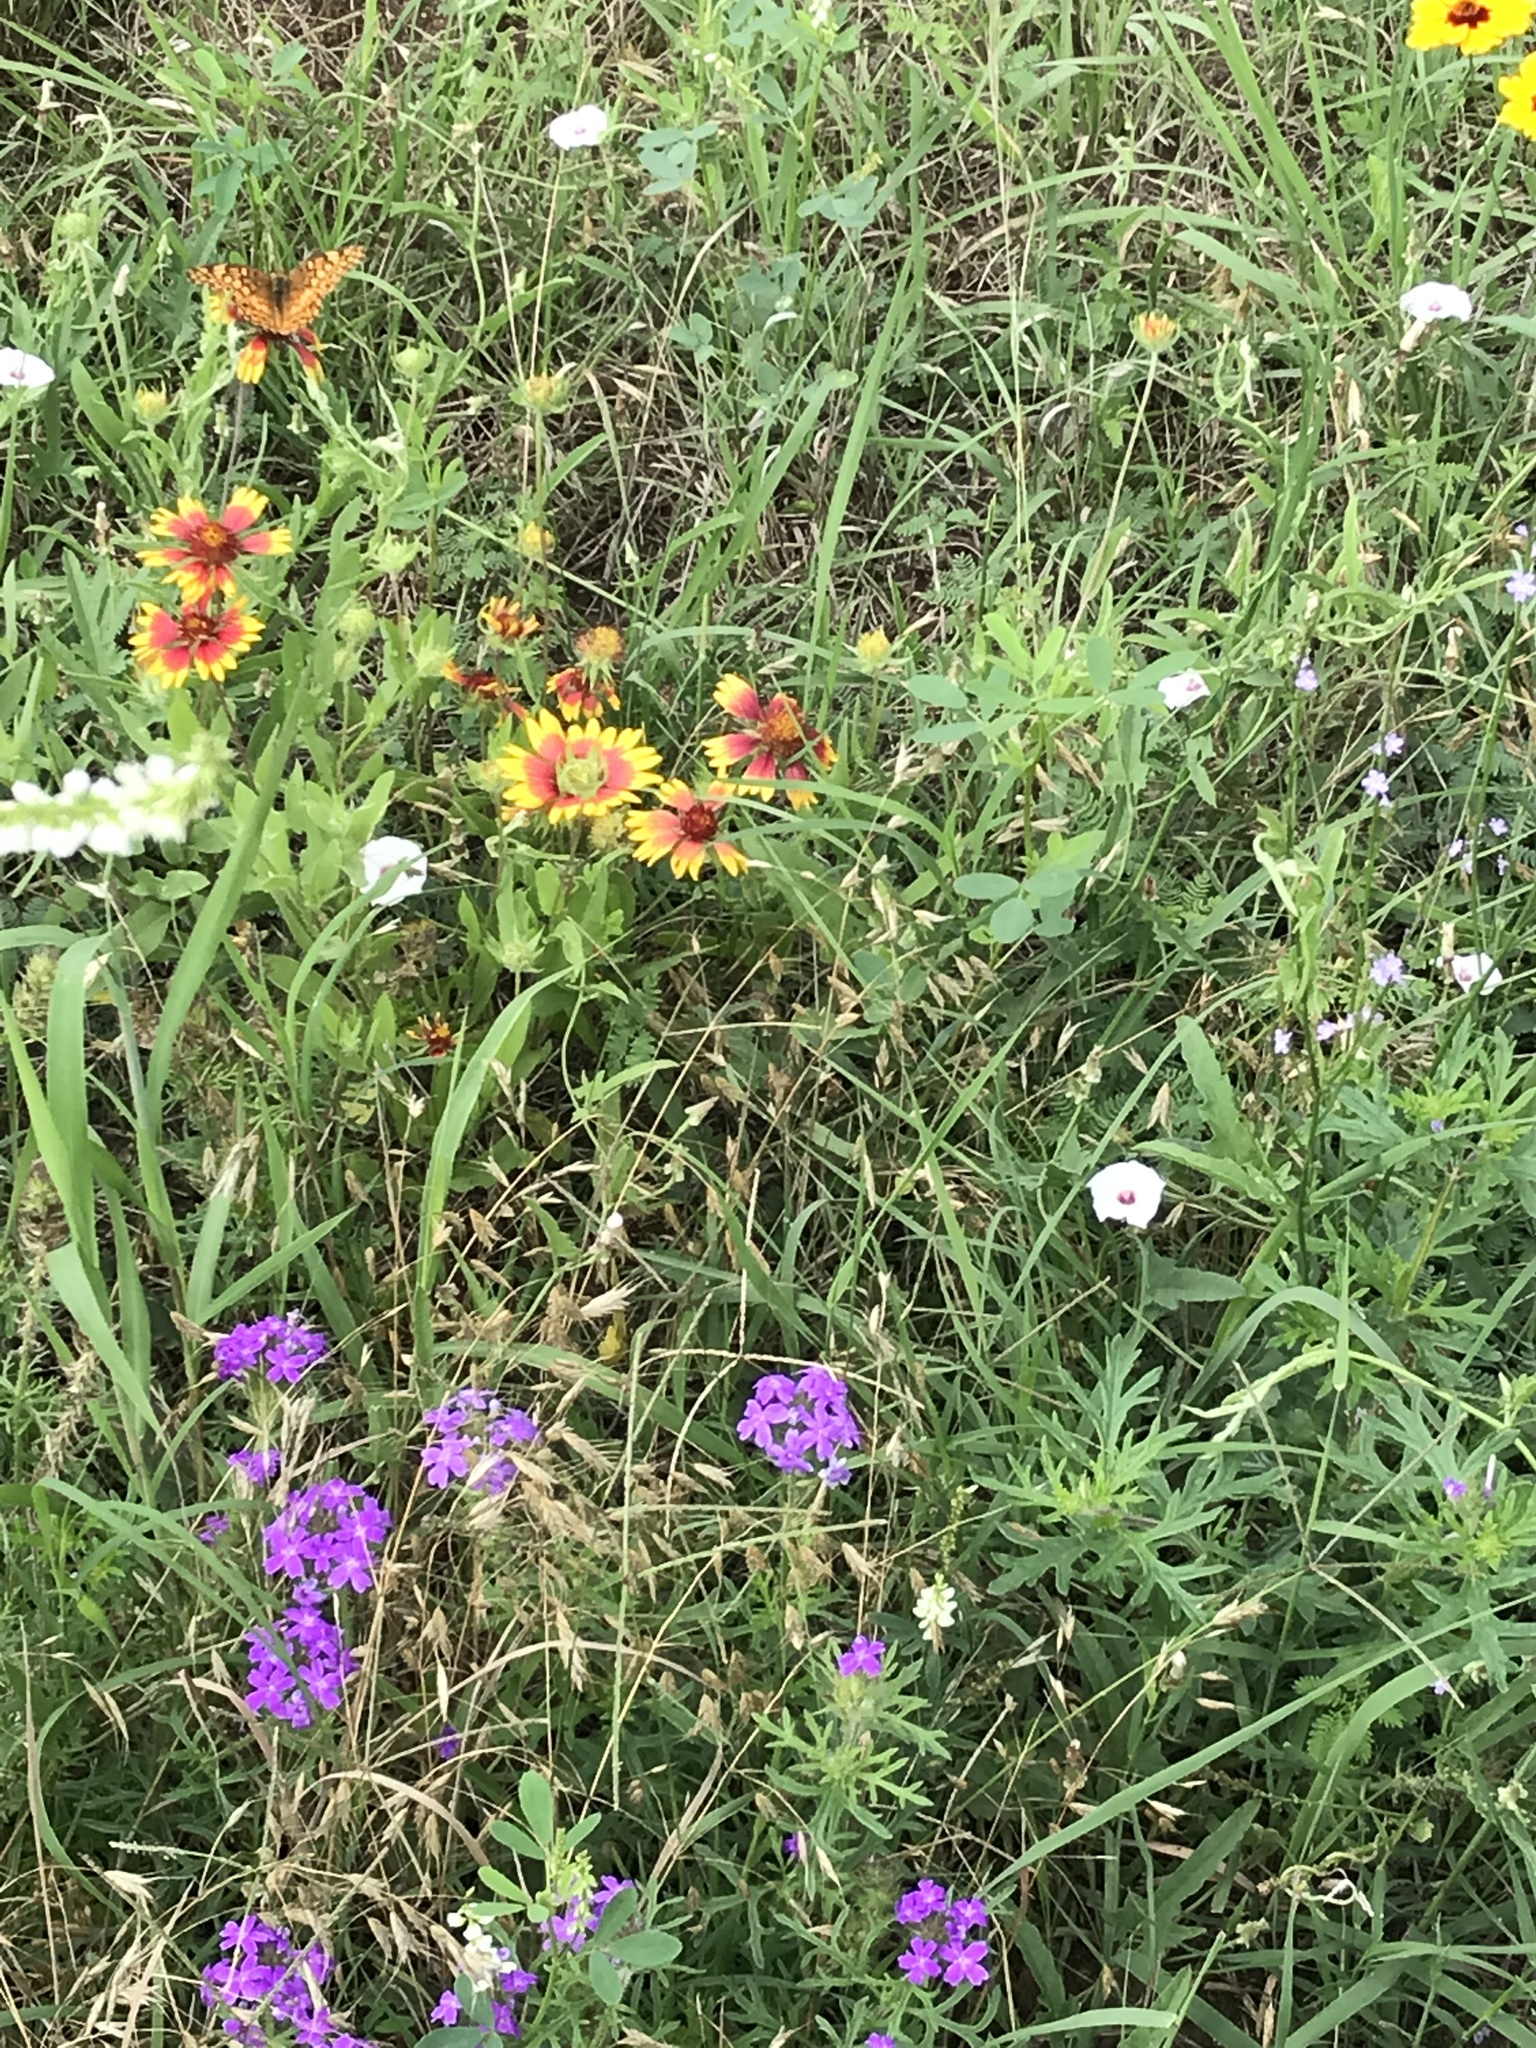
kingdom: Animalia
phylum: Arthropoda
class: Insecta
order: Lepidoptera
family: Nymphalidae
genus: Euptoieta
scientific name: Euptoieta claudia
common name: Variegated fritillary
